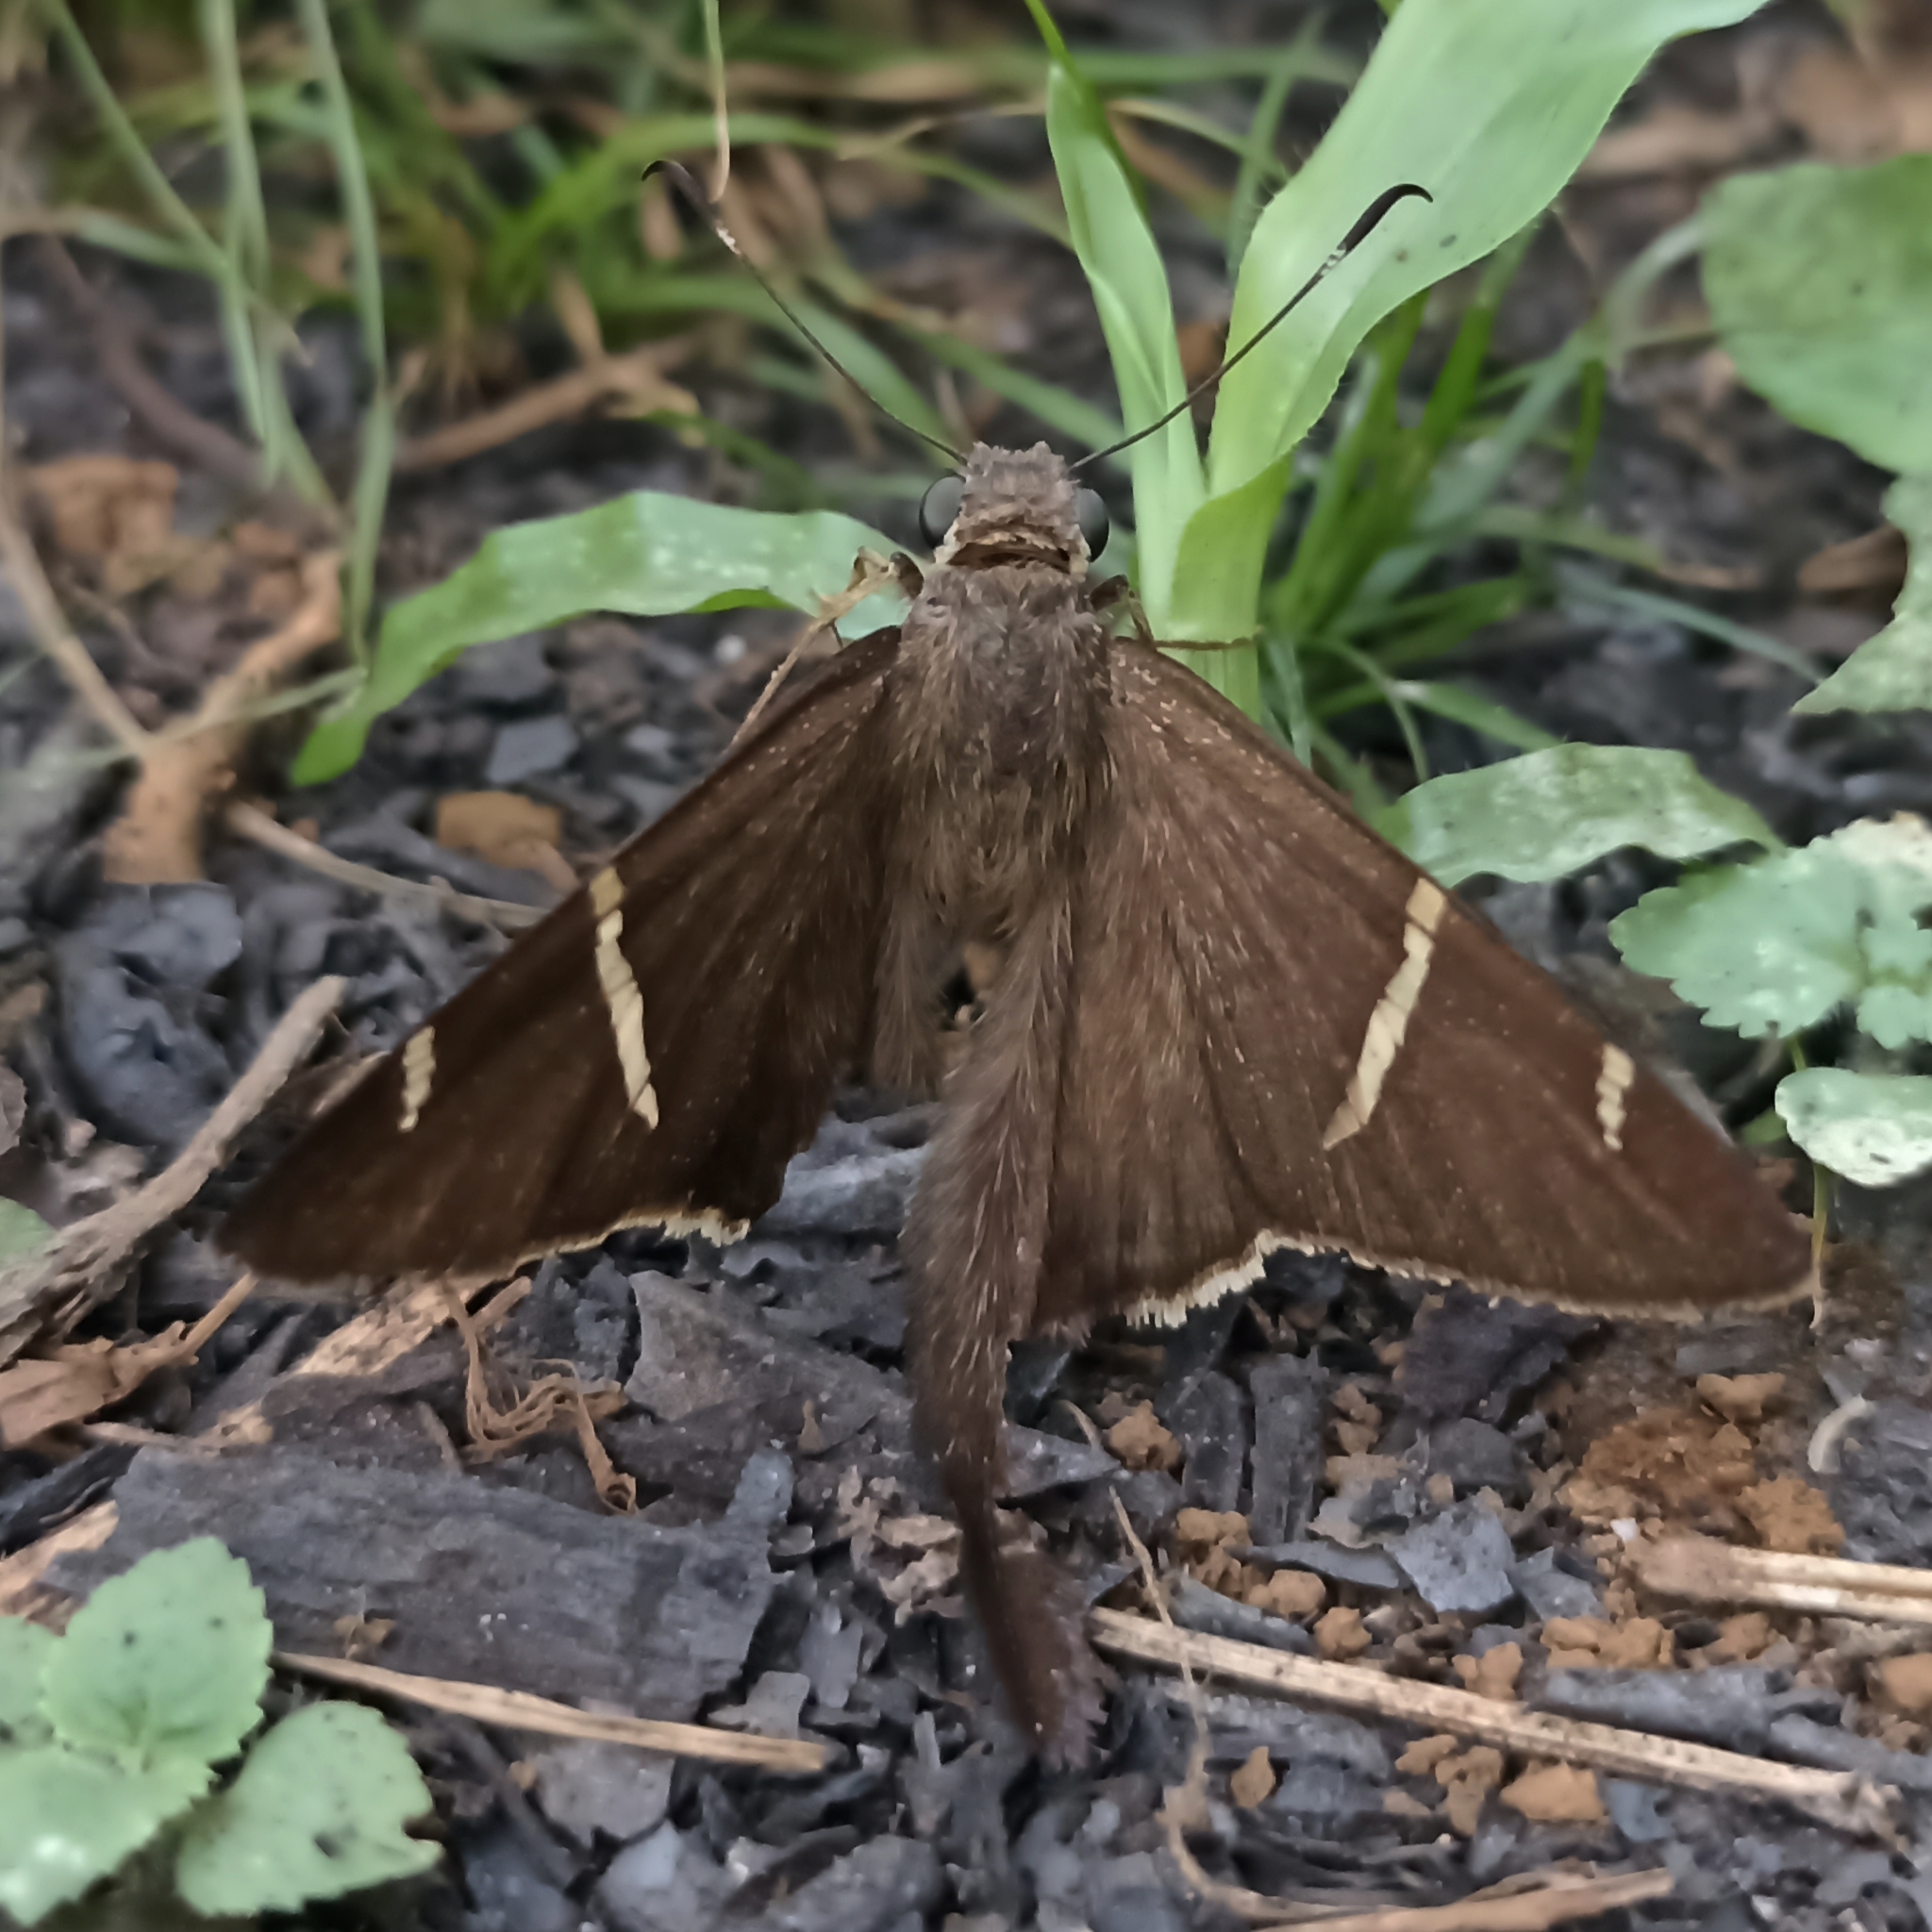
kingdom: Animalia
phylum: Arthropoda
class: Insecta
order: Lepidoptera
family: Hesperiidae
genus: Urbanus
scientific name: Urbanus teleus
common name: Teleus longtail
